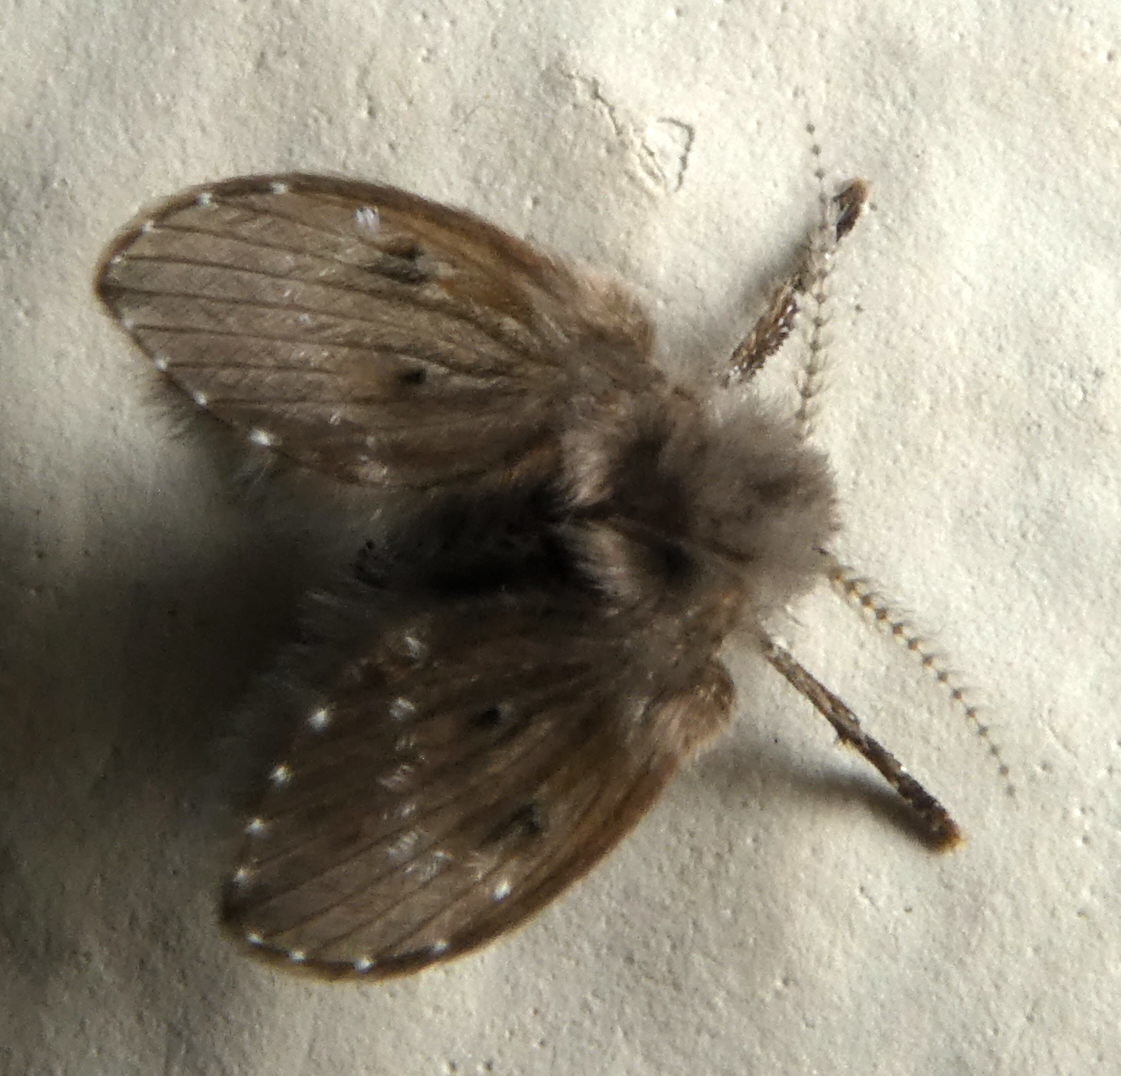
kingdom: Animalia
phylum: Arthropoda
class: Insecta
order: Diptera
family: Psychodidae
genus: Clogmia
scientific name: Clogmia albipunctatus
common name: White-spotted moth fly
